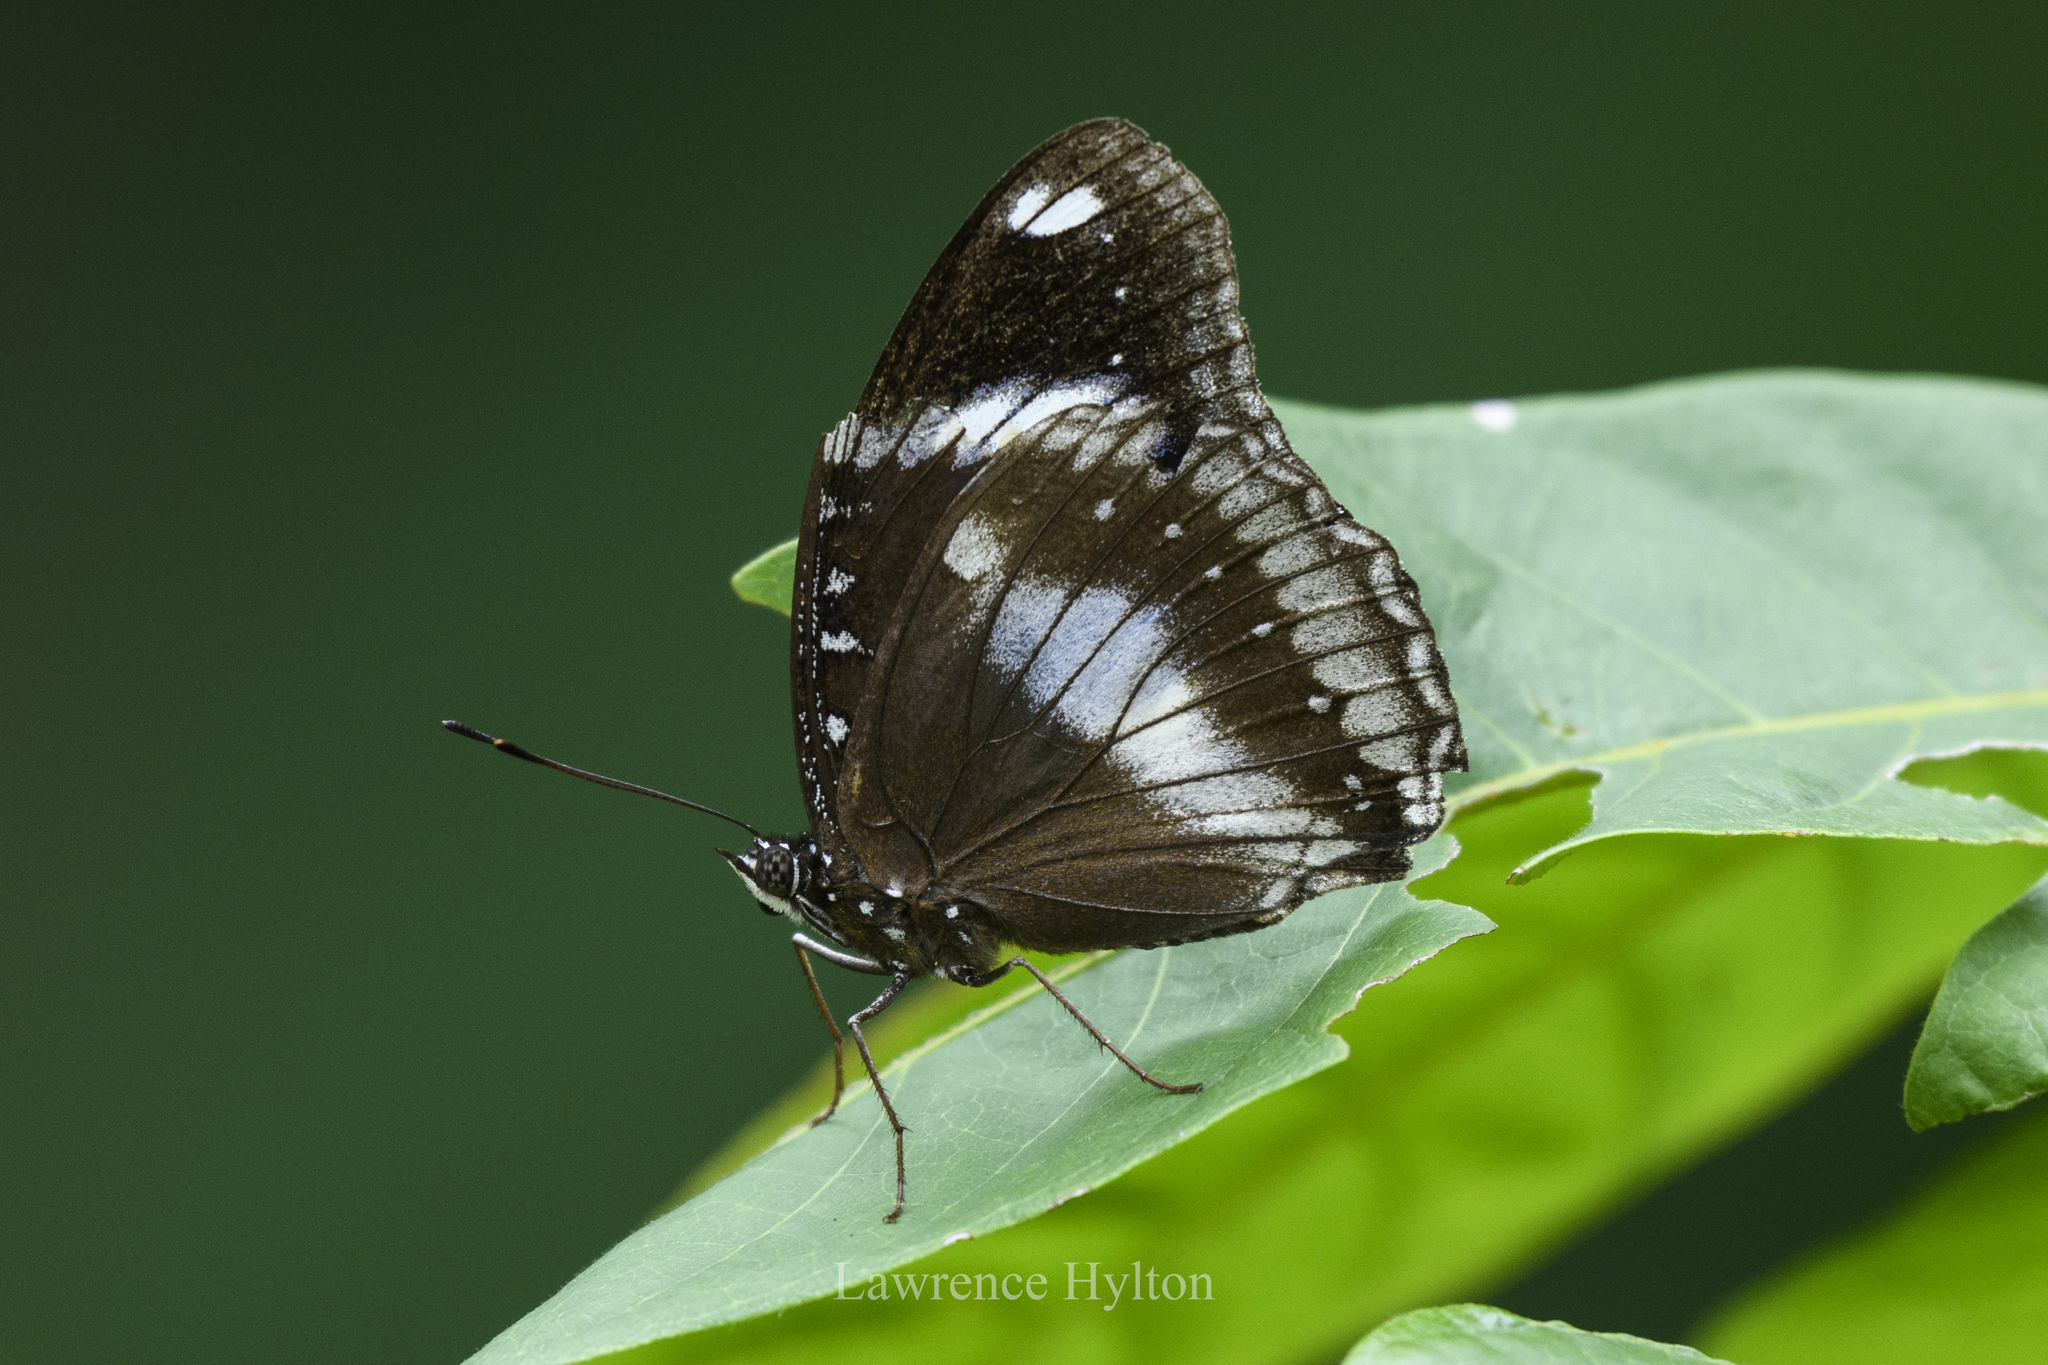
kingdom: Animalia
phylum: Arthropoda
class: Insecta
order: Lepidoptera
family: Nymphalidae
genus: Hypolimnas
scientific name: Hypolimnas bolina
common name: Great eggfly
